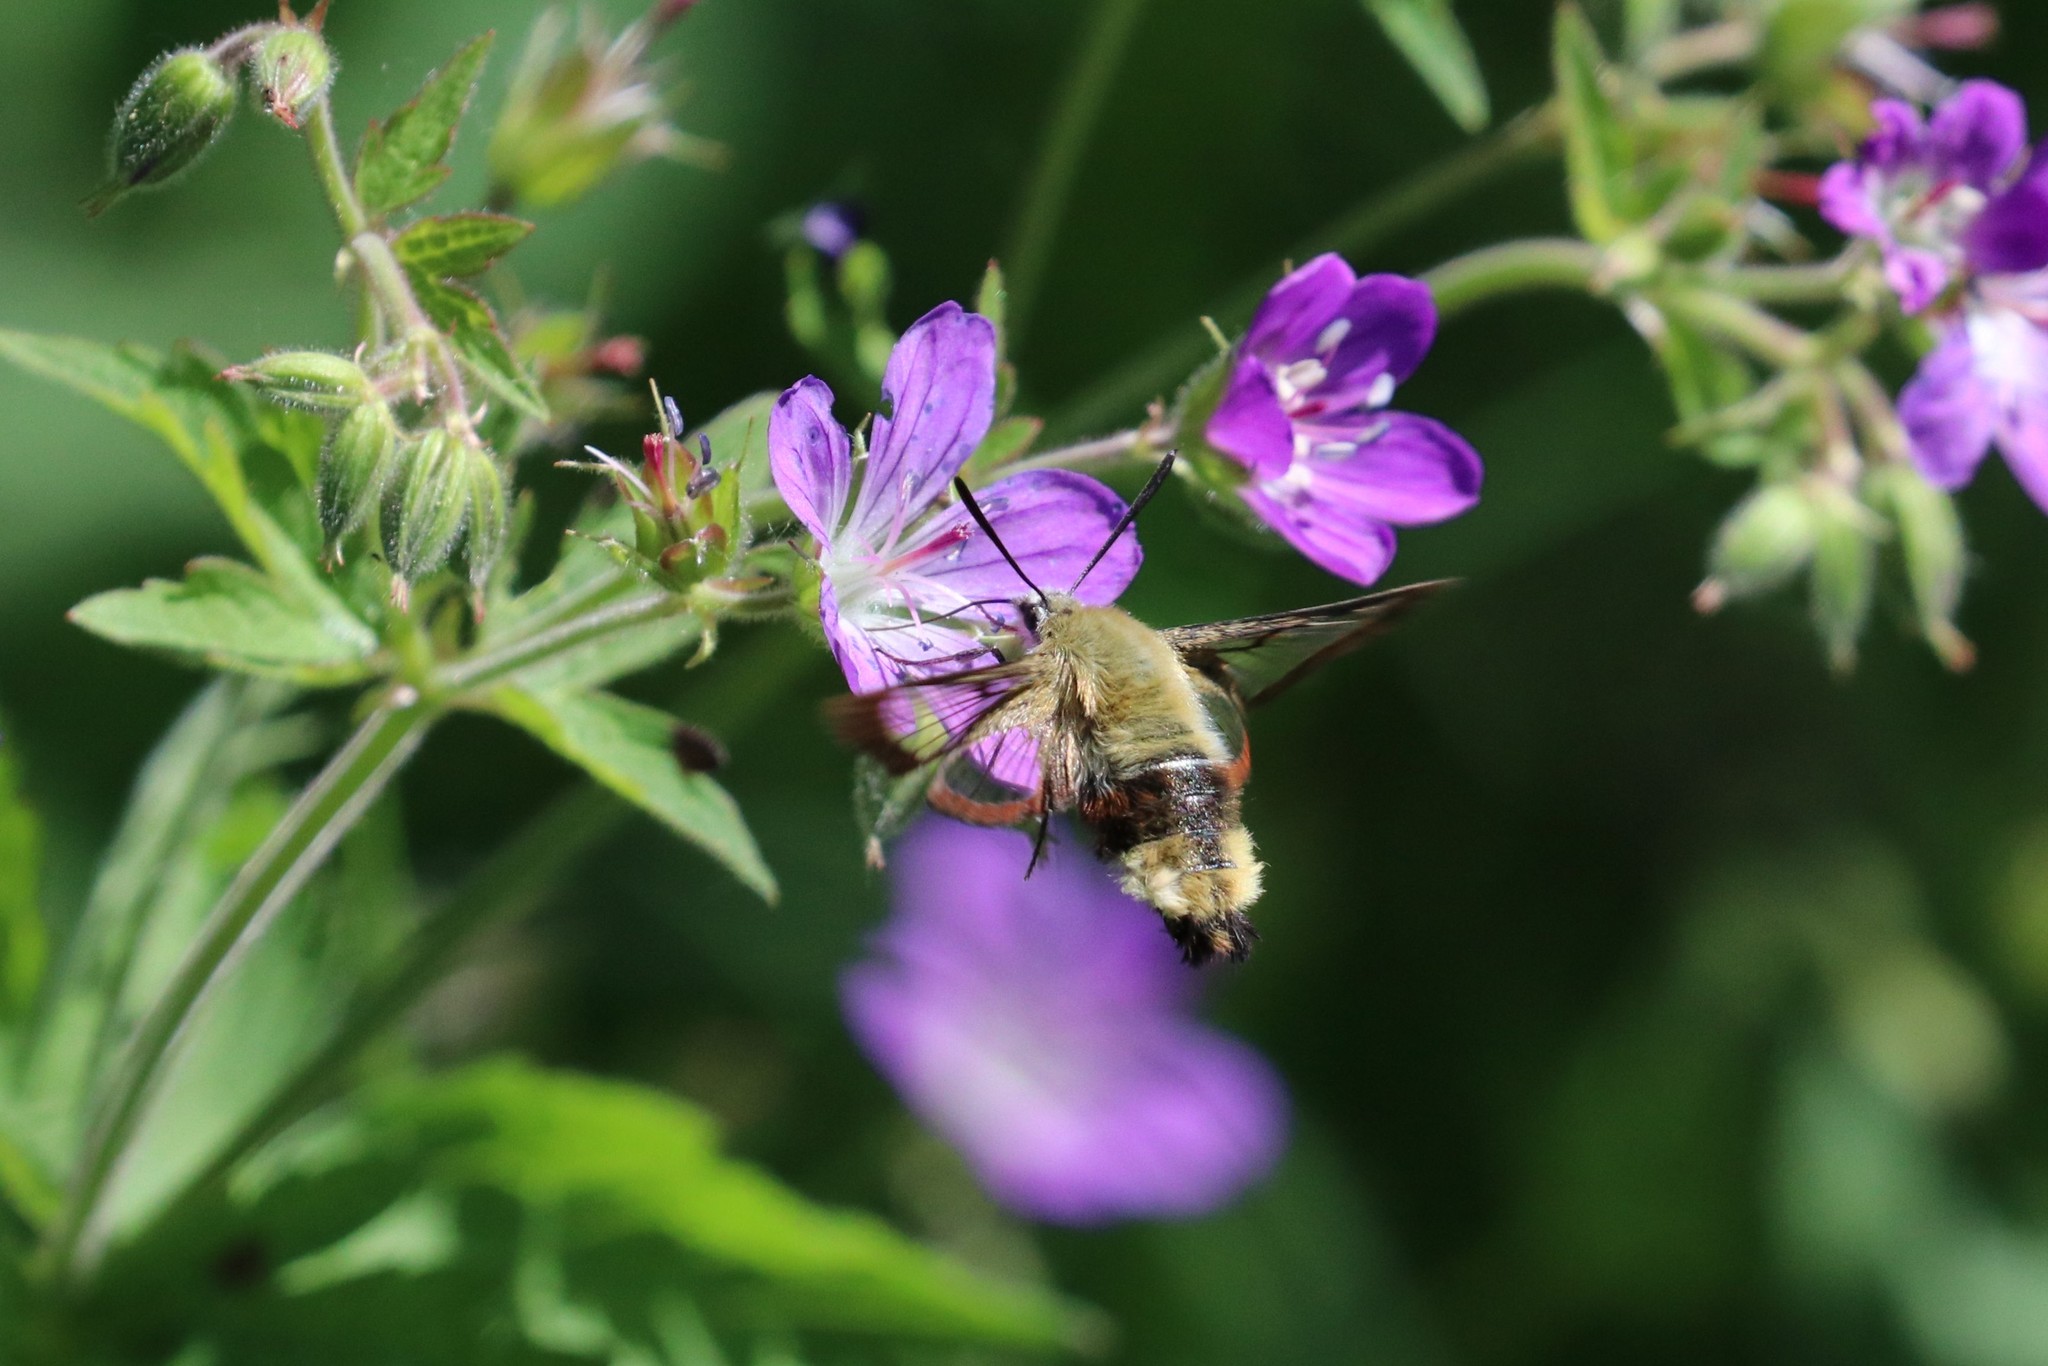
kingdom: Animalia
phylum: Arthropoda
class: Insecta
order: Lepidoptera
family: Sphingidae
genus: Hemaris
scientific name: Hemaris fuciformis
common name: Broad-bordered bee hawk-moth
